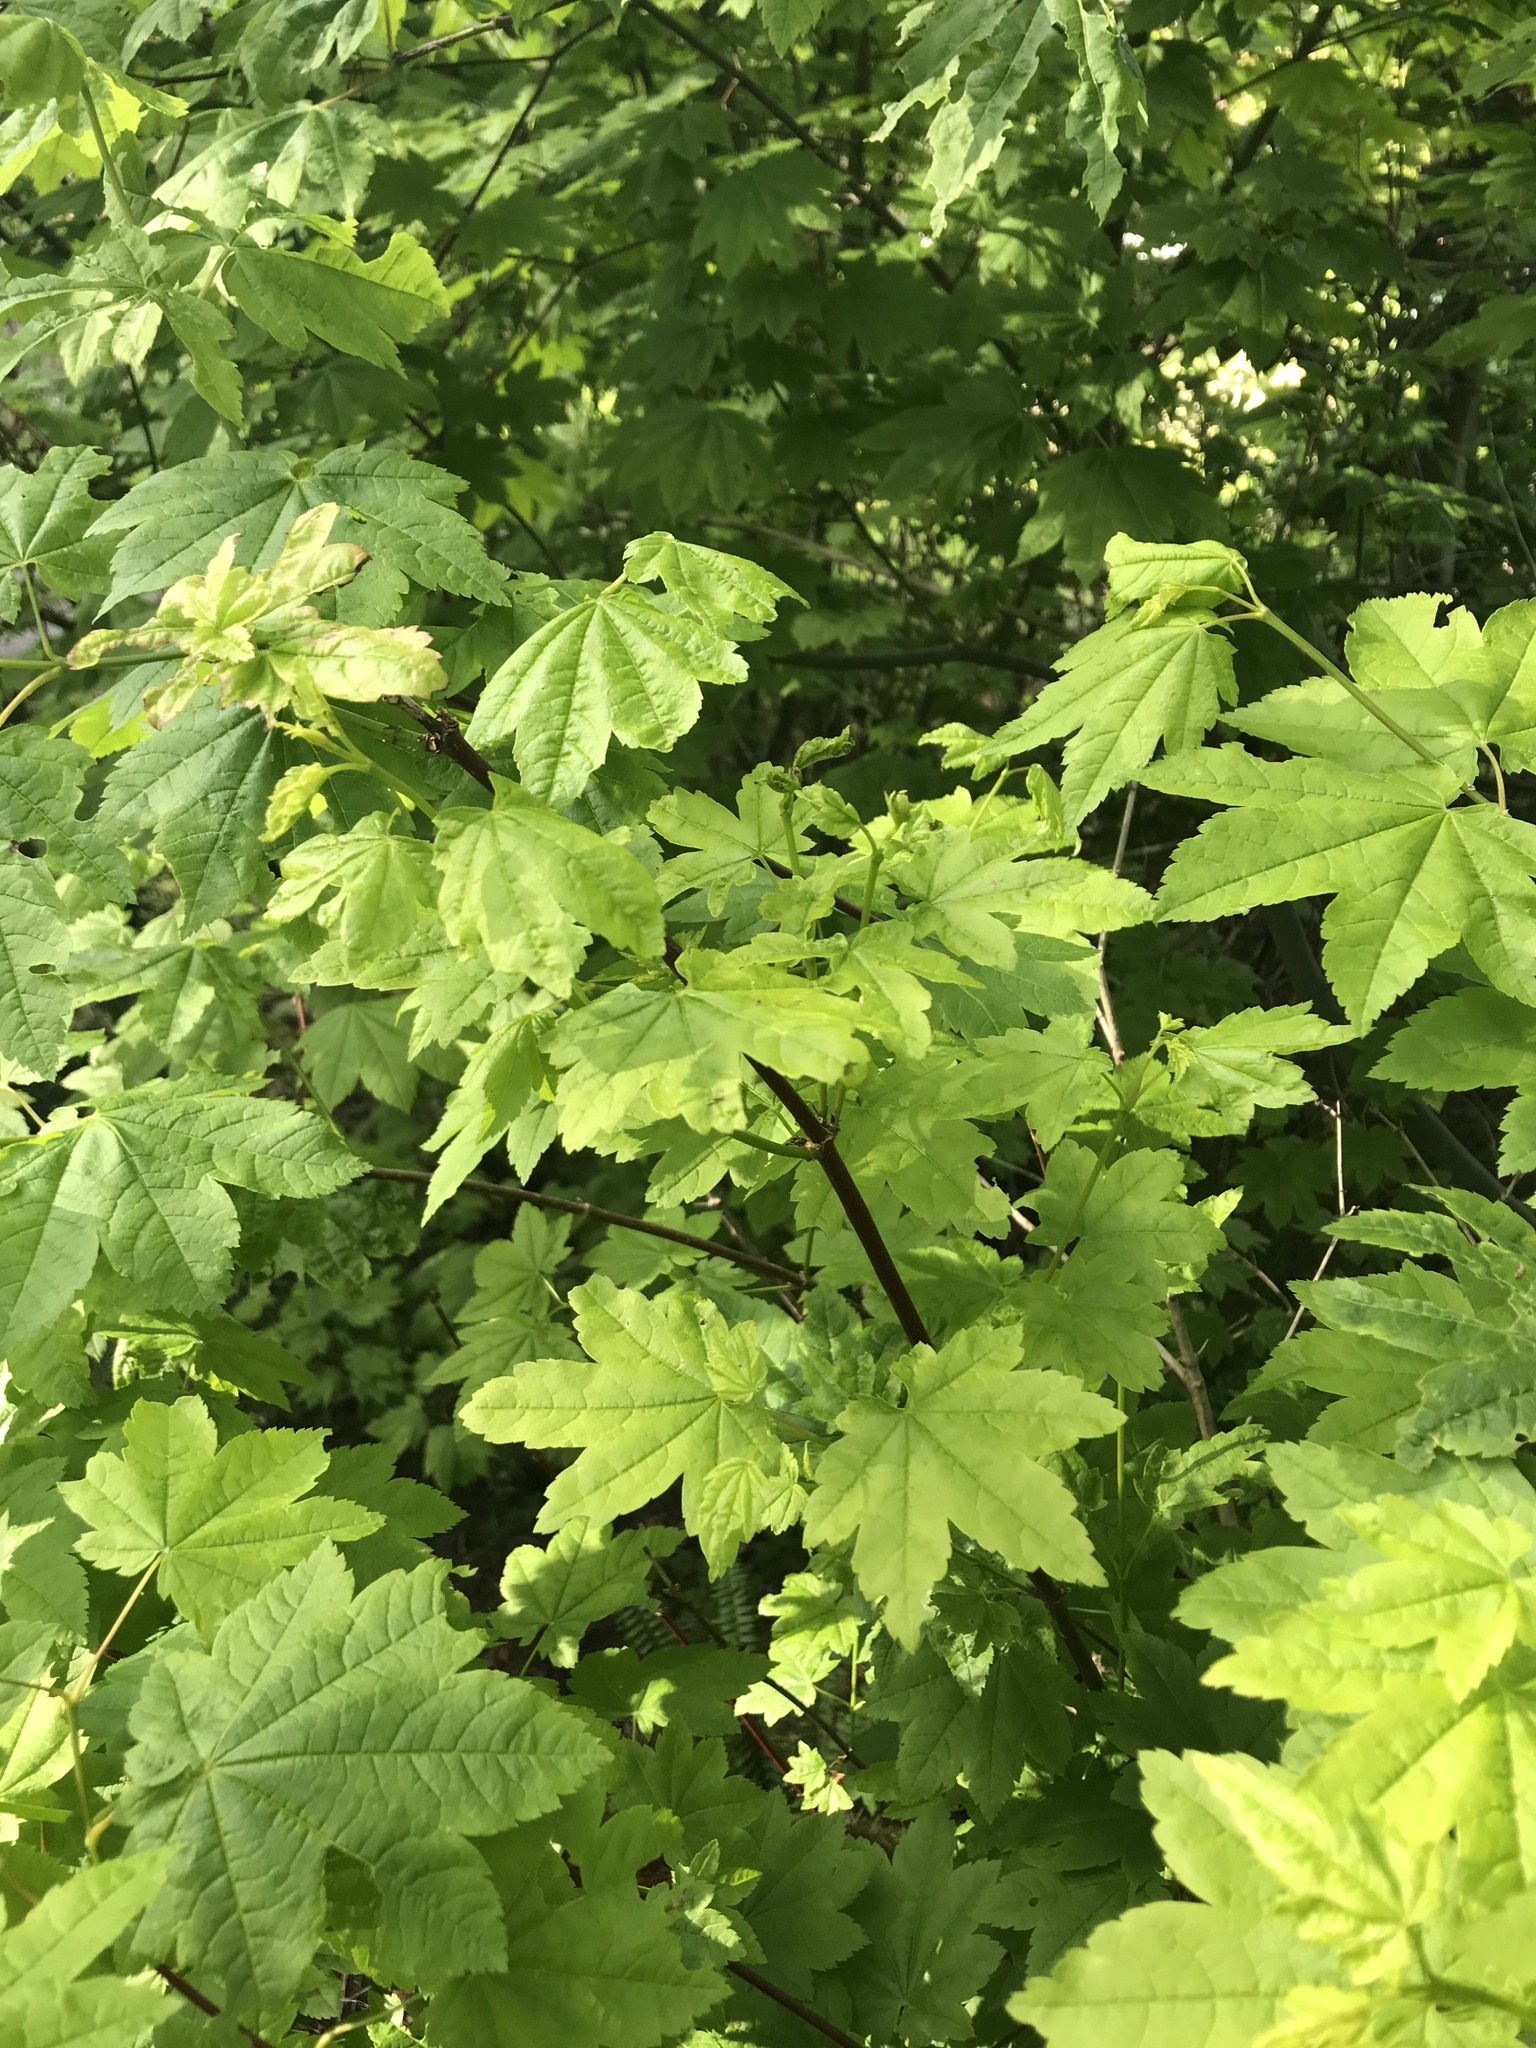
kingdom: Plantae
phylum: Tracheophyta
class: Magnoliopsida
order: Sapindales
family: Sapindaceae
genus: Acer
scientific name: Acer circinatum
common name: Vine maple
